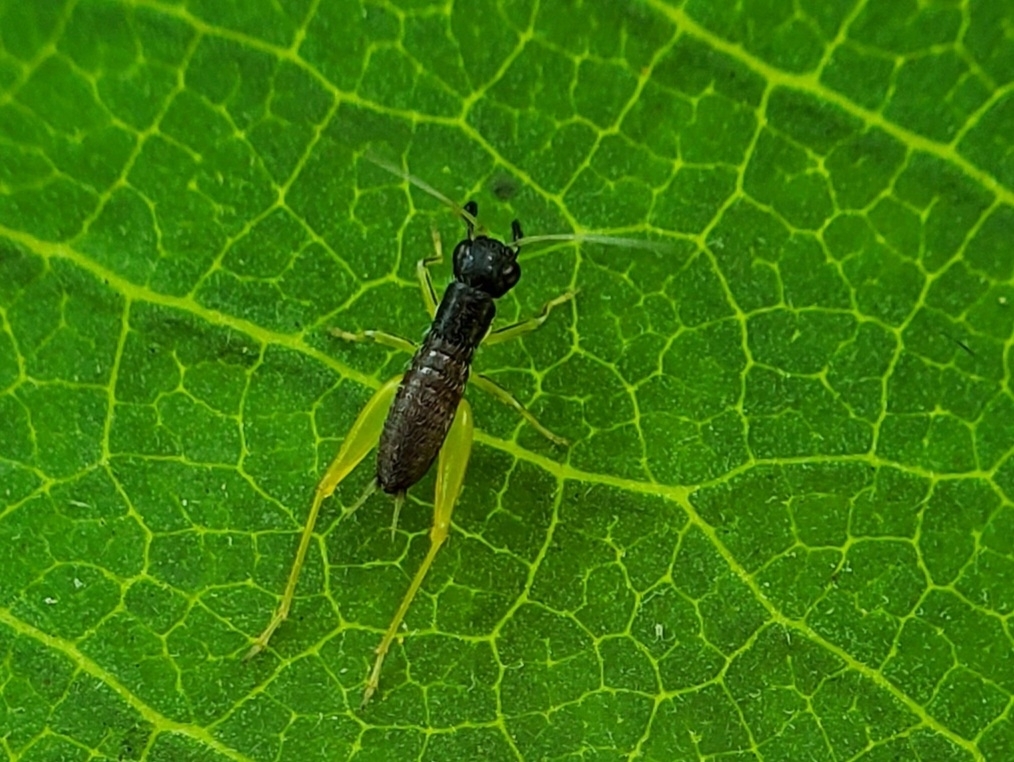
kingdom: Animalia
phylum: Arthropoda
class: Insecta
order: Orthoptera
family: Trigonidiidae
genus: Phyllopalpus
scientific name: Phyllopalpus pulchellus
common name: Handsome trig
